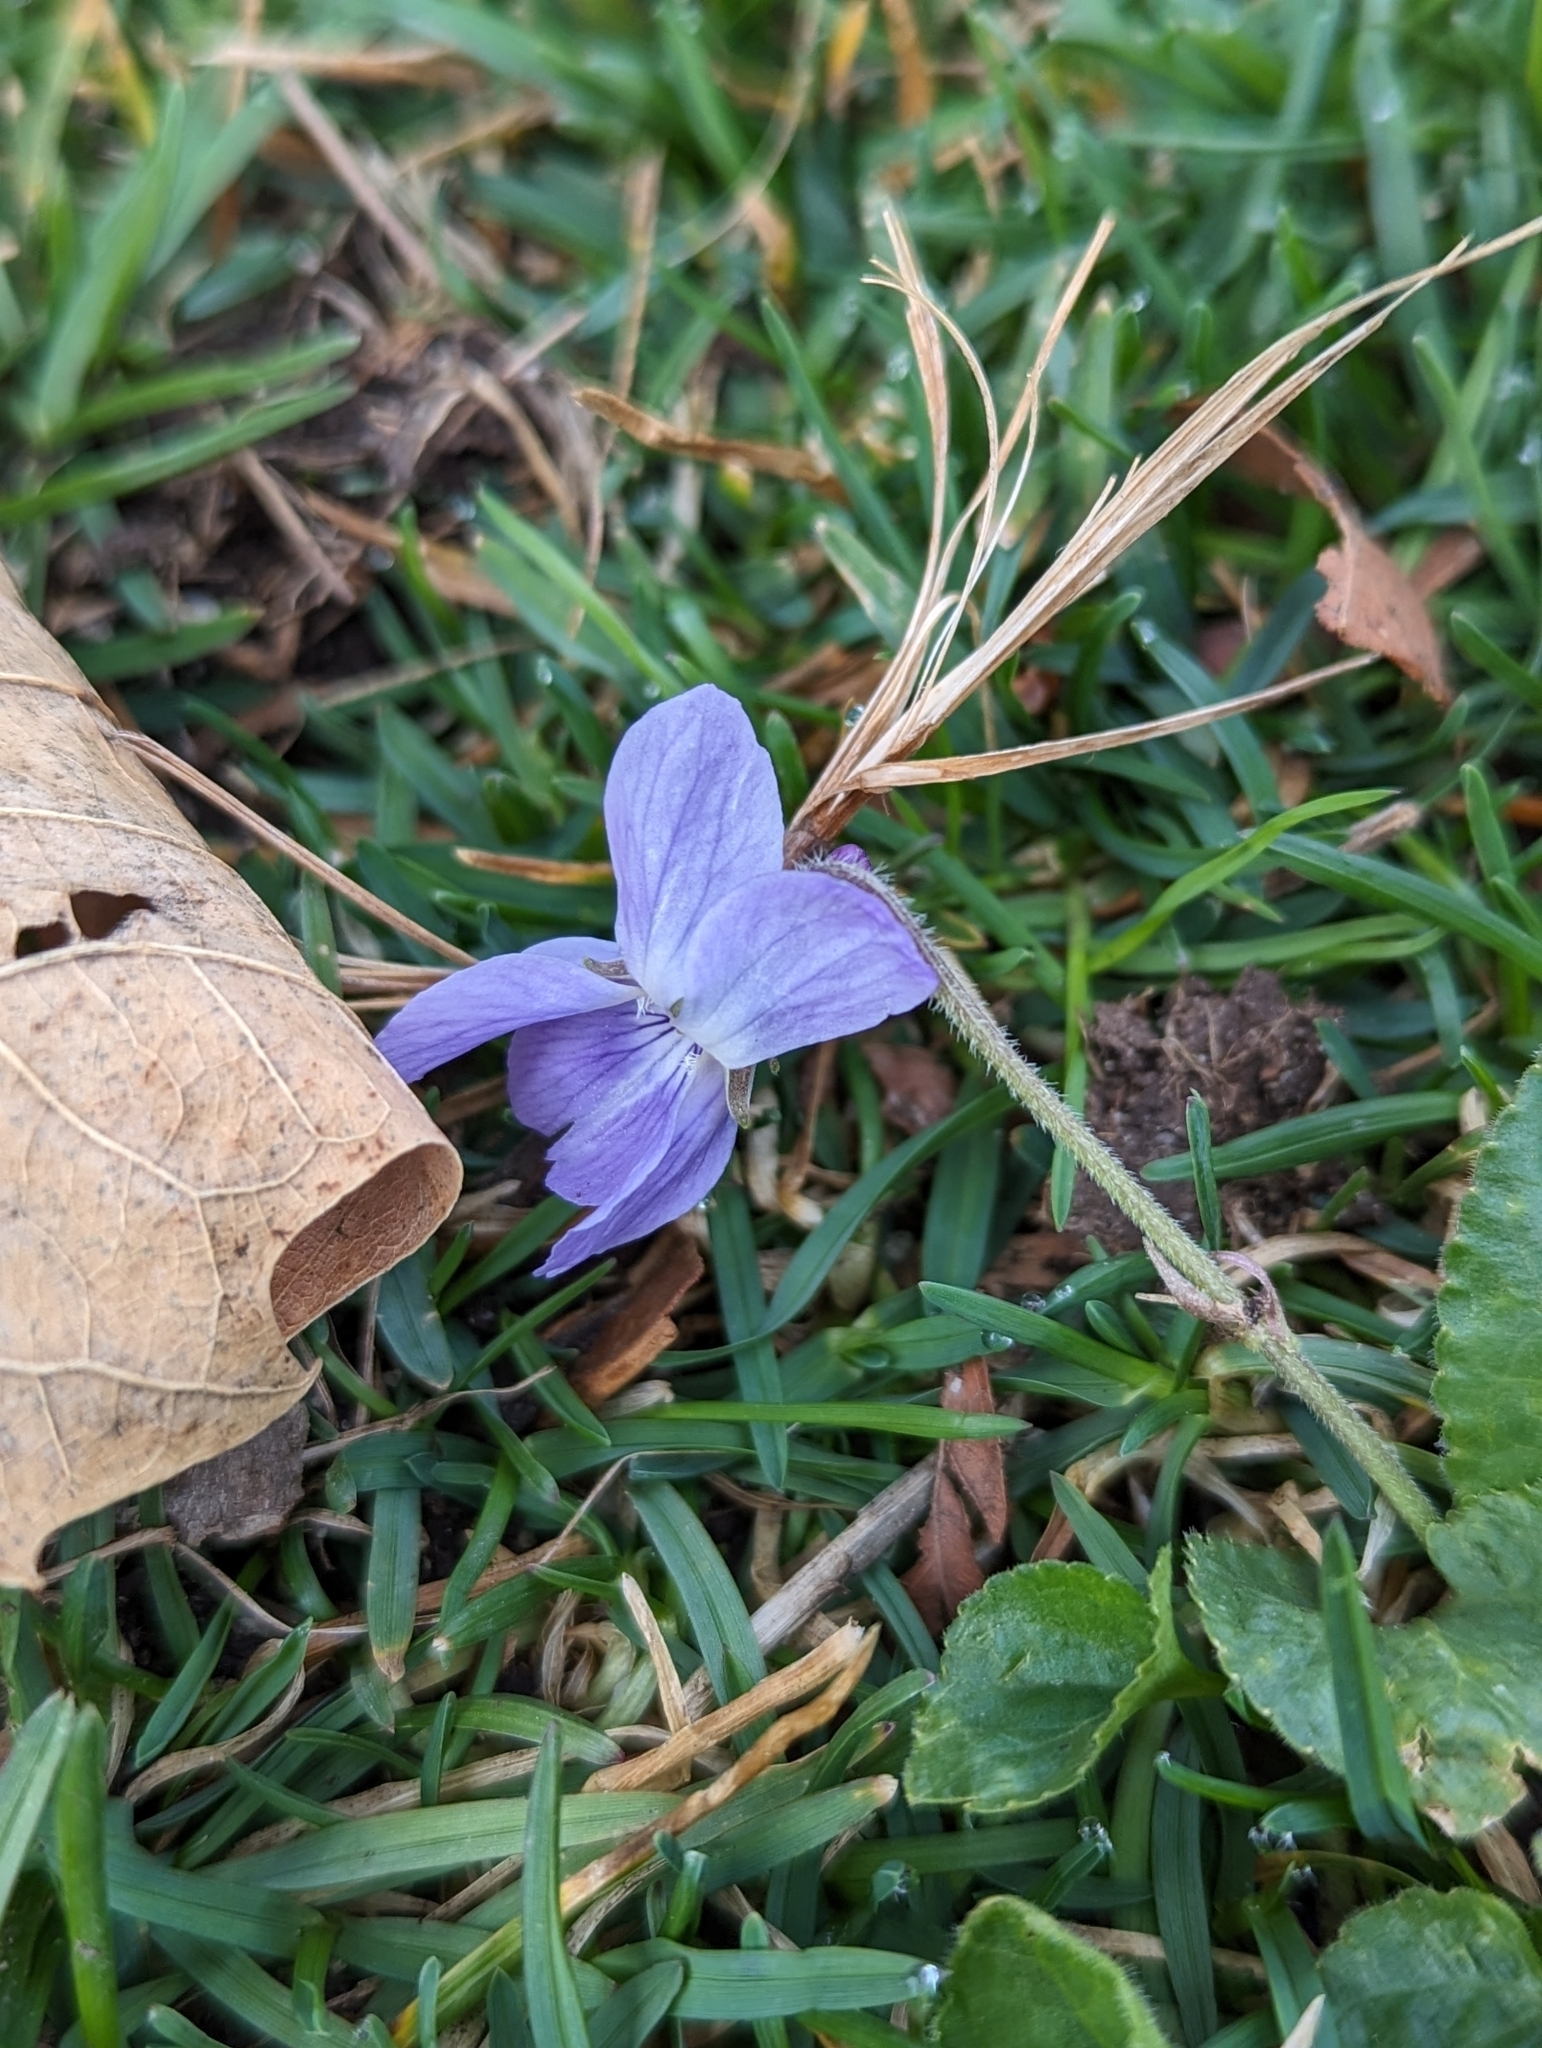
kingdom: Plantae
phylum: Tracheophyta
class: Magnoliopsida
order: Malpighiales
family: Violaceae
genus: Viola
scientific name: Viola odorata
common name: Sweet violet
